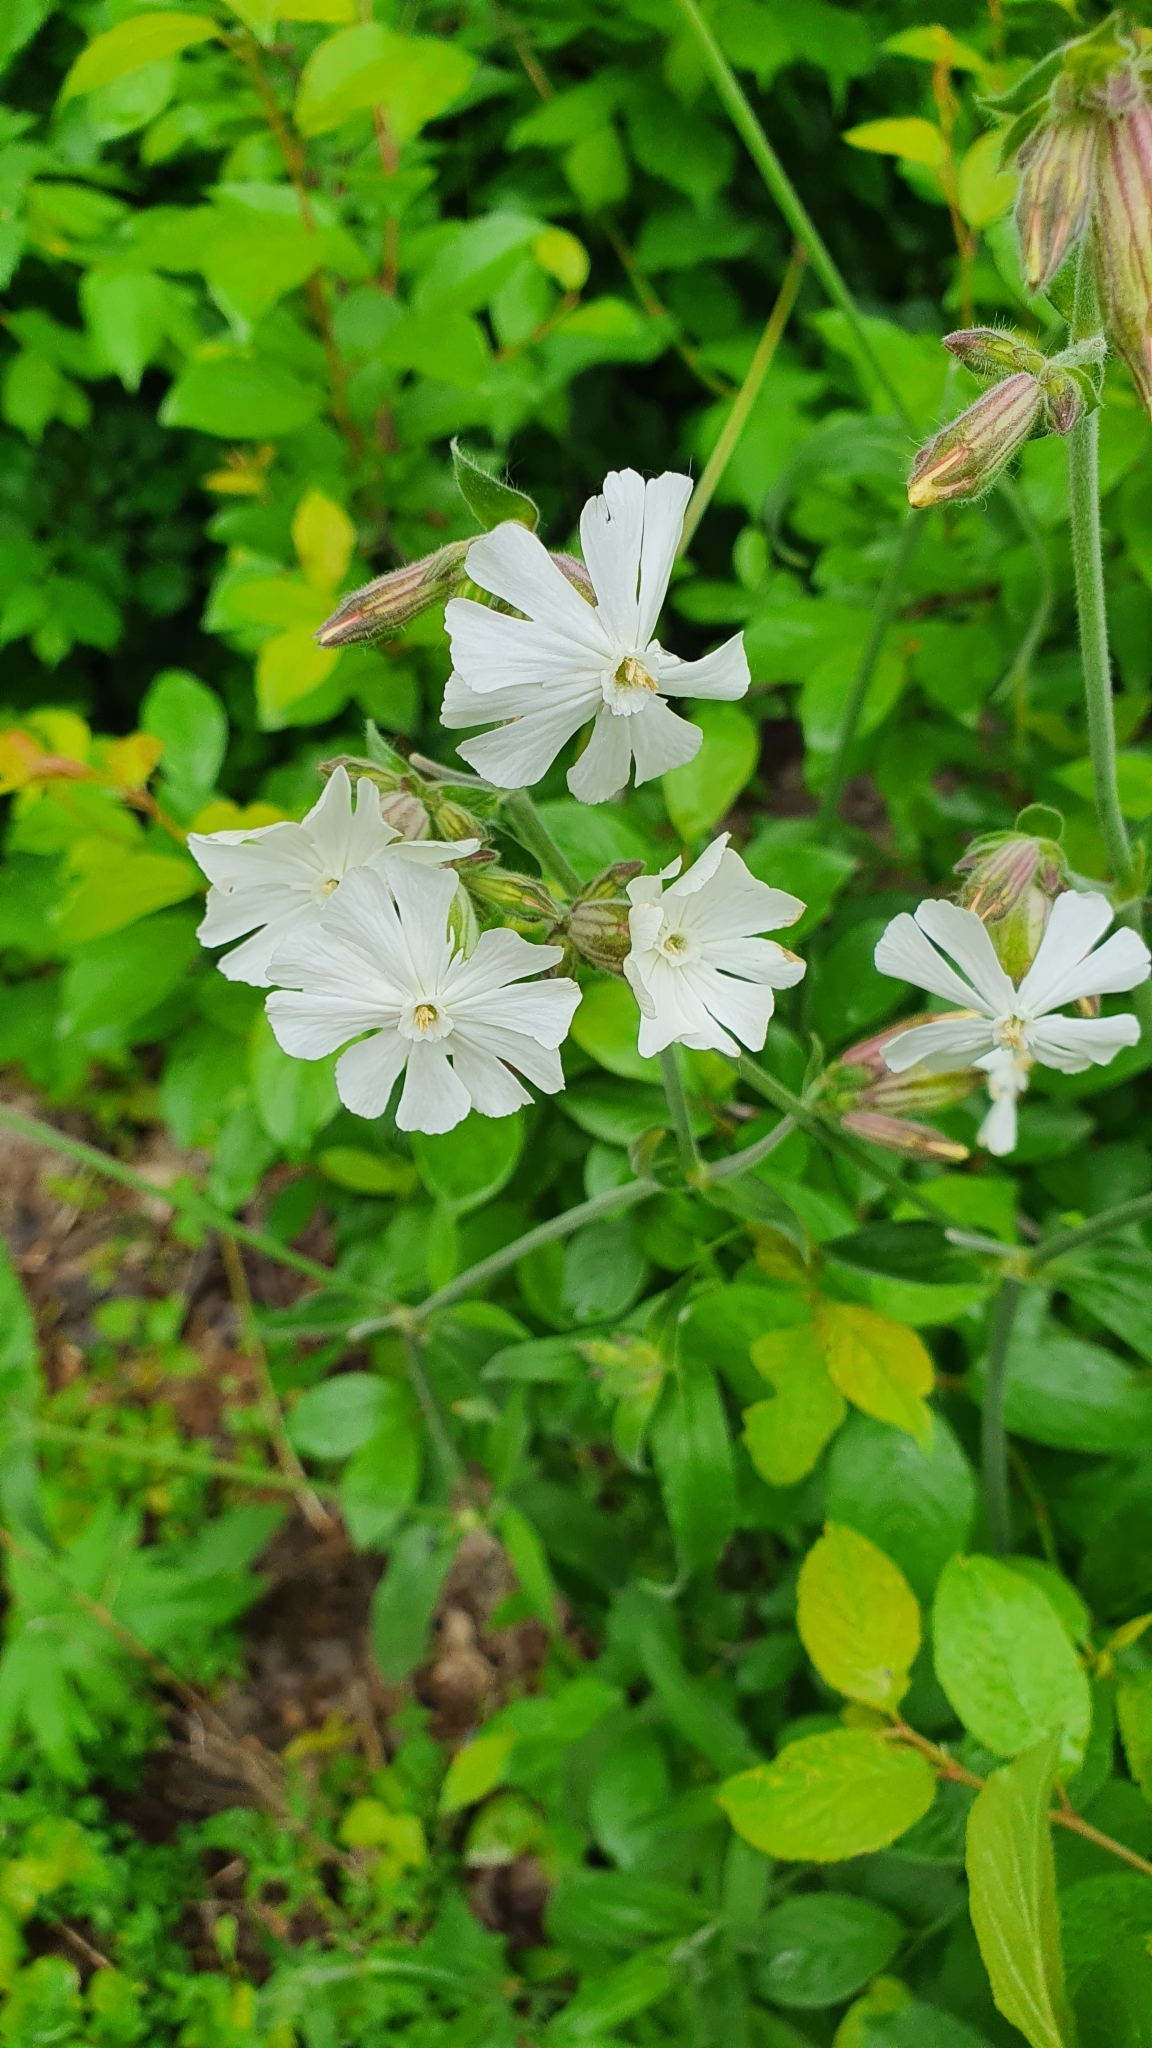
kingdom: Plantae
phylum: Tracheophyta
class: Magnoliopsida
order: Caryophyllales
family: Caryophyllaceae
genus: Silene
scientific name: Silene latifolia
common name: White campion
